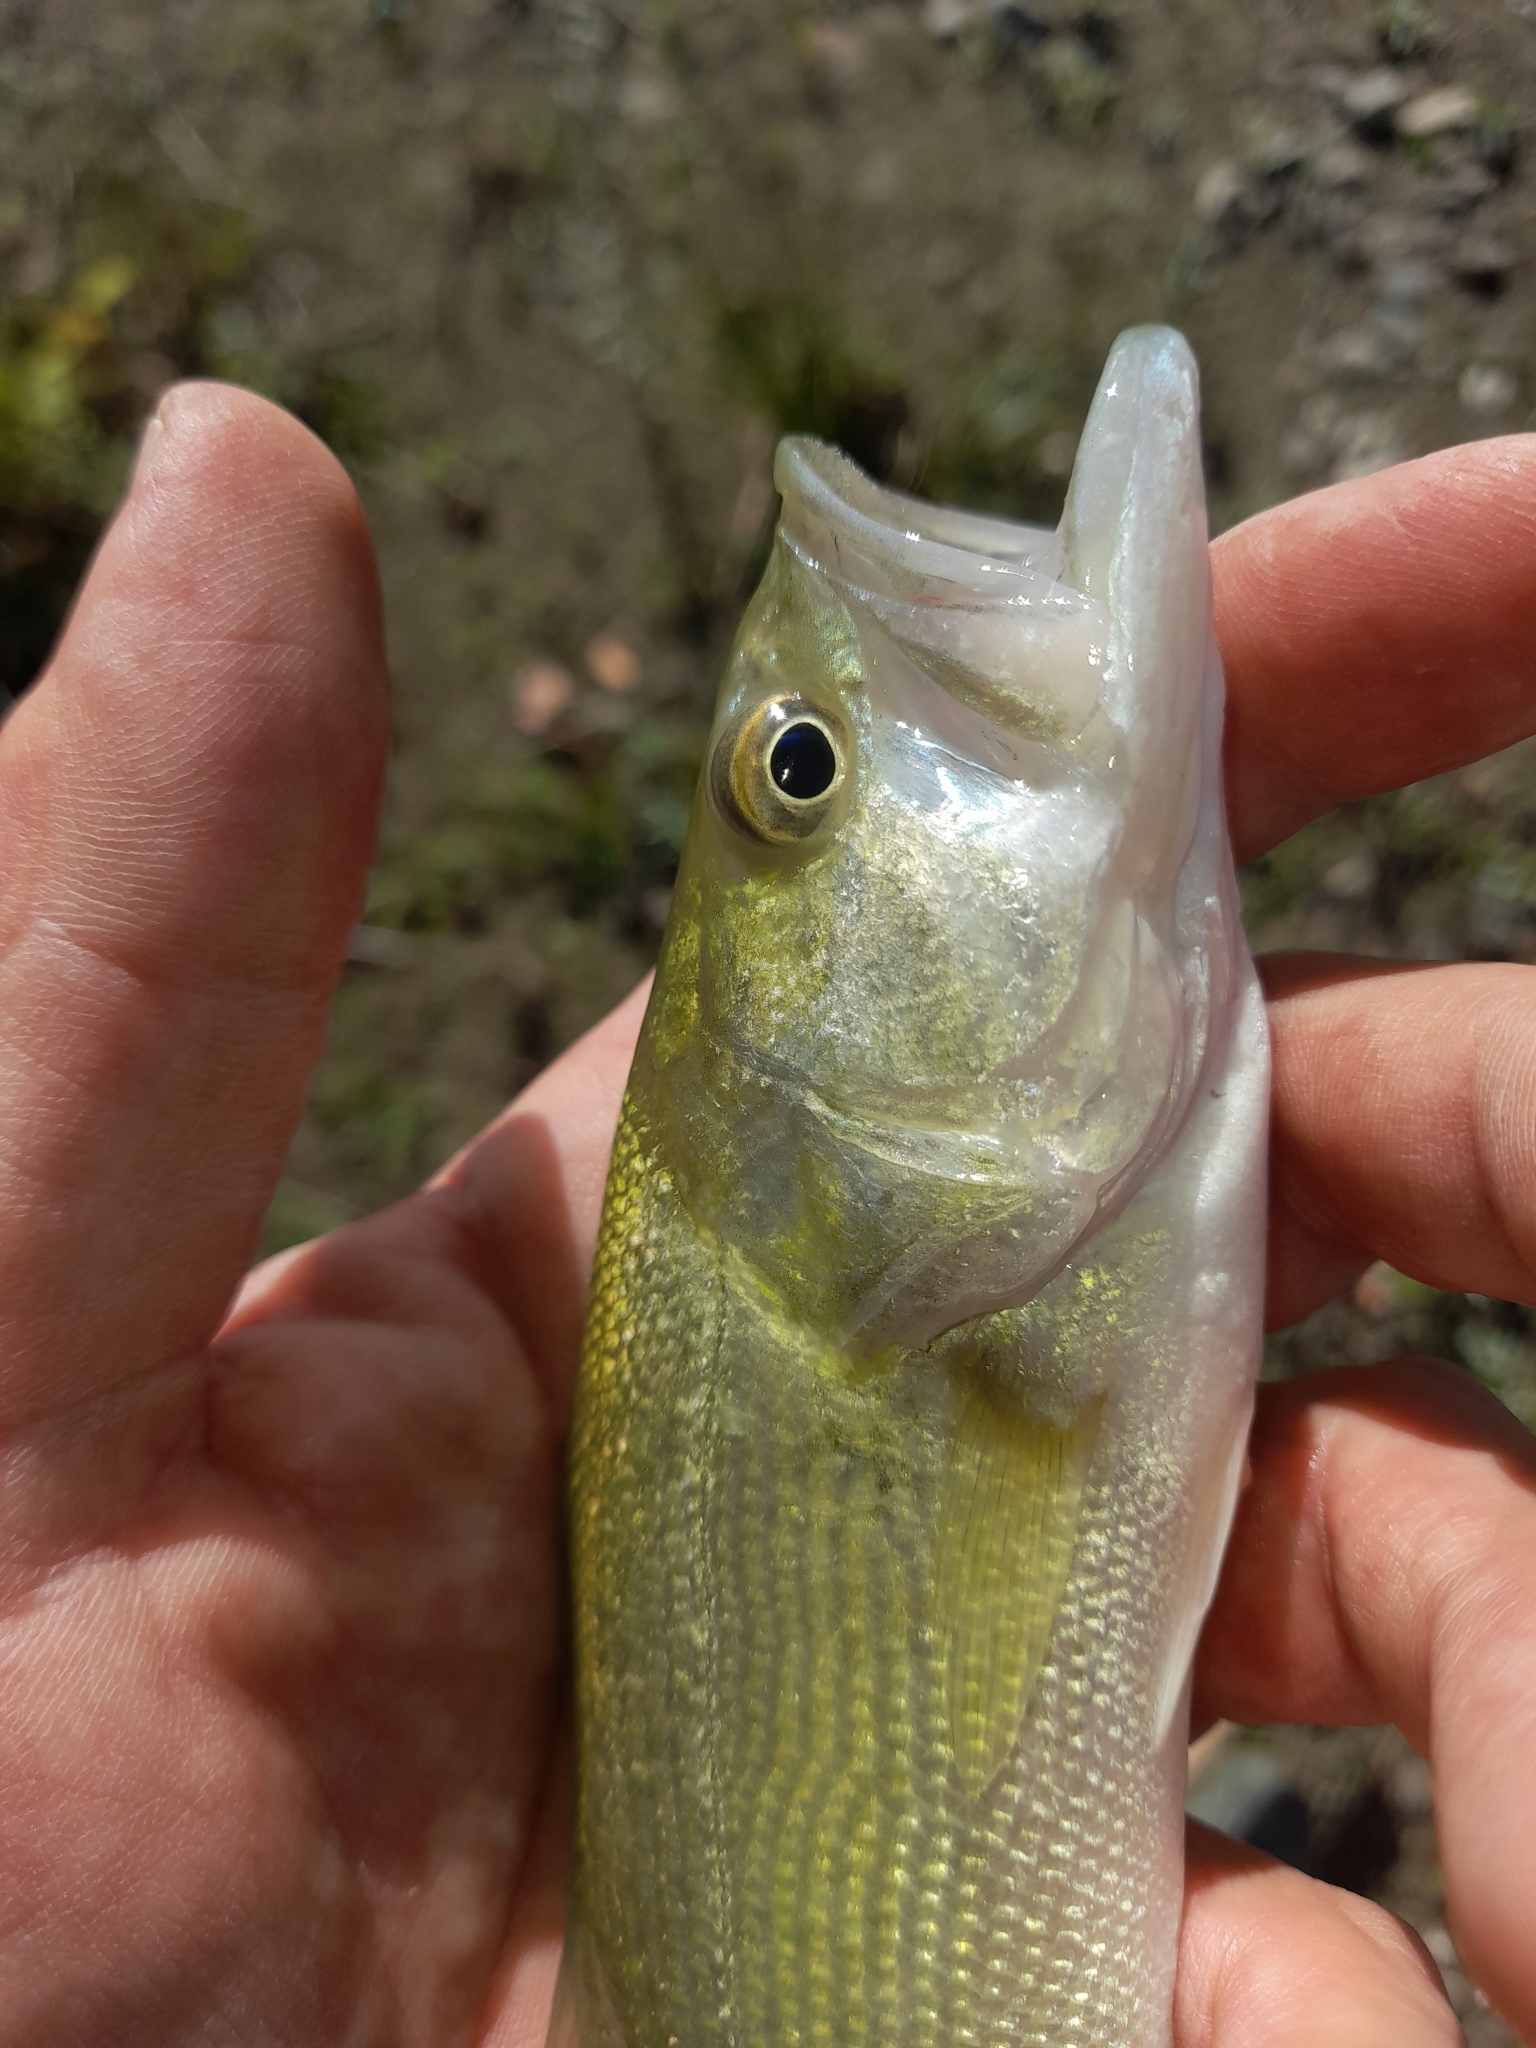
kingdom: Animalia
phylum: Chordata
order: Perciformes
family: Centrarchidae
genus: Micropterus
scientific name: Micropterus
